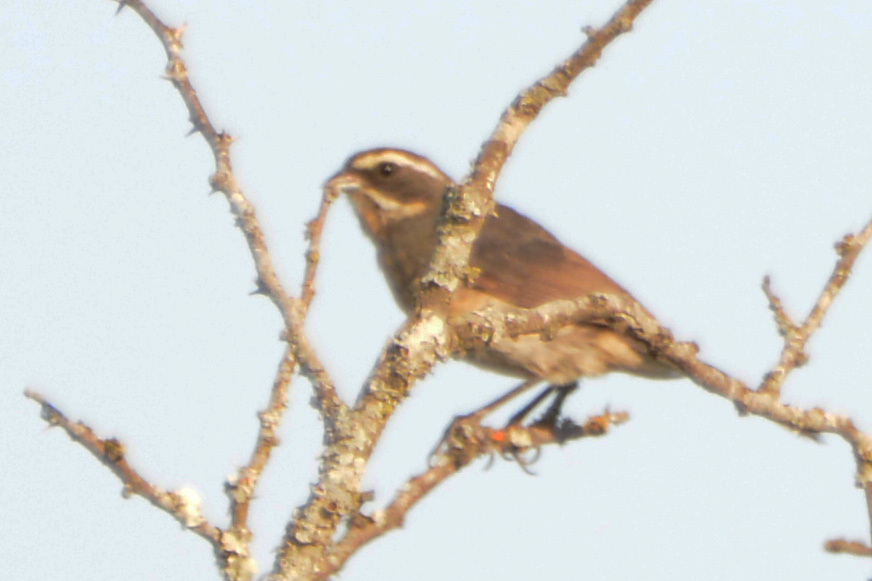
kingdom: Animalia
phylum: Chordata
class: Aves
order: Passeriformes
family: Thraupidae
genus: Poospiza
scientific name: Poospiza whitii
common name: Black-and-chestnut warbling finch
